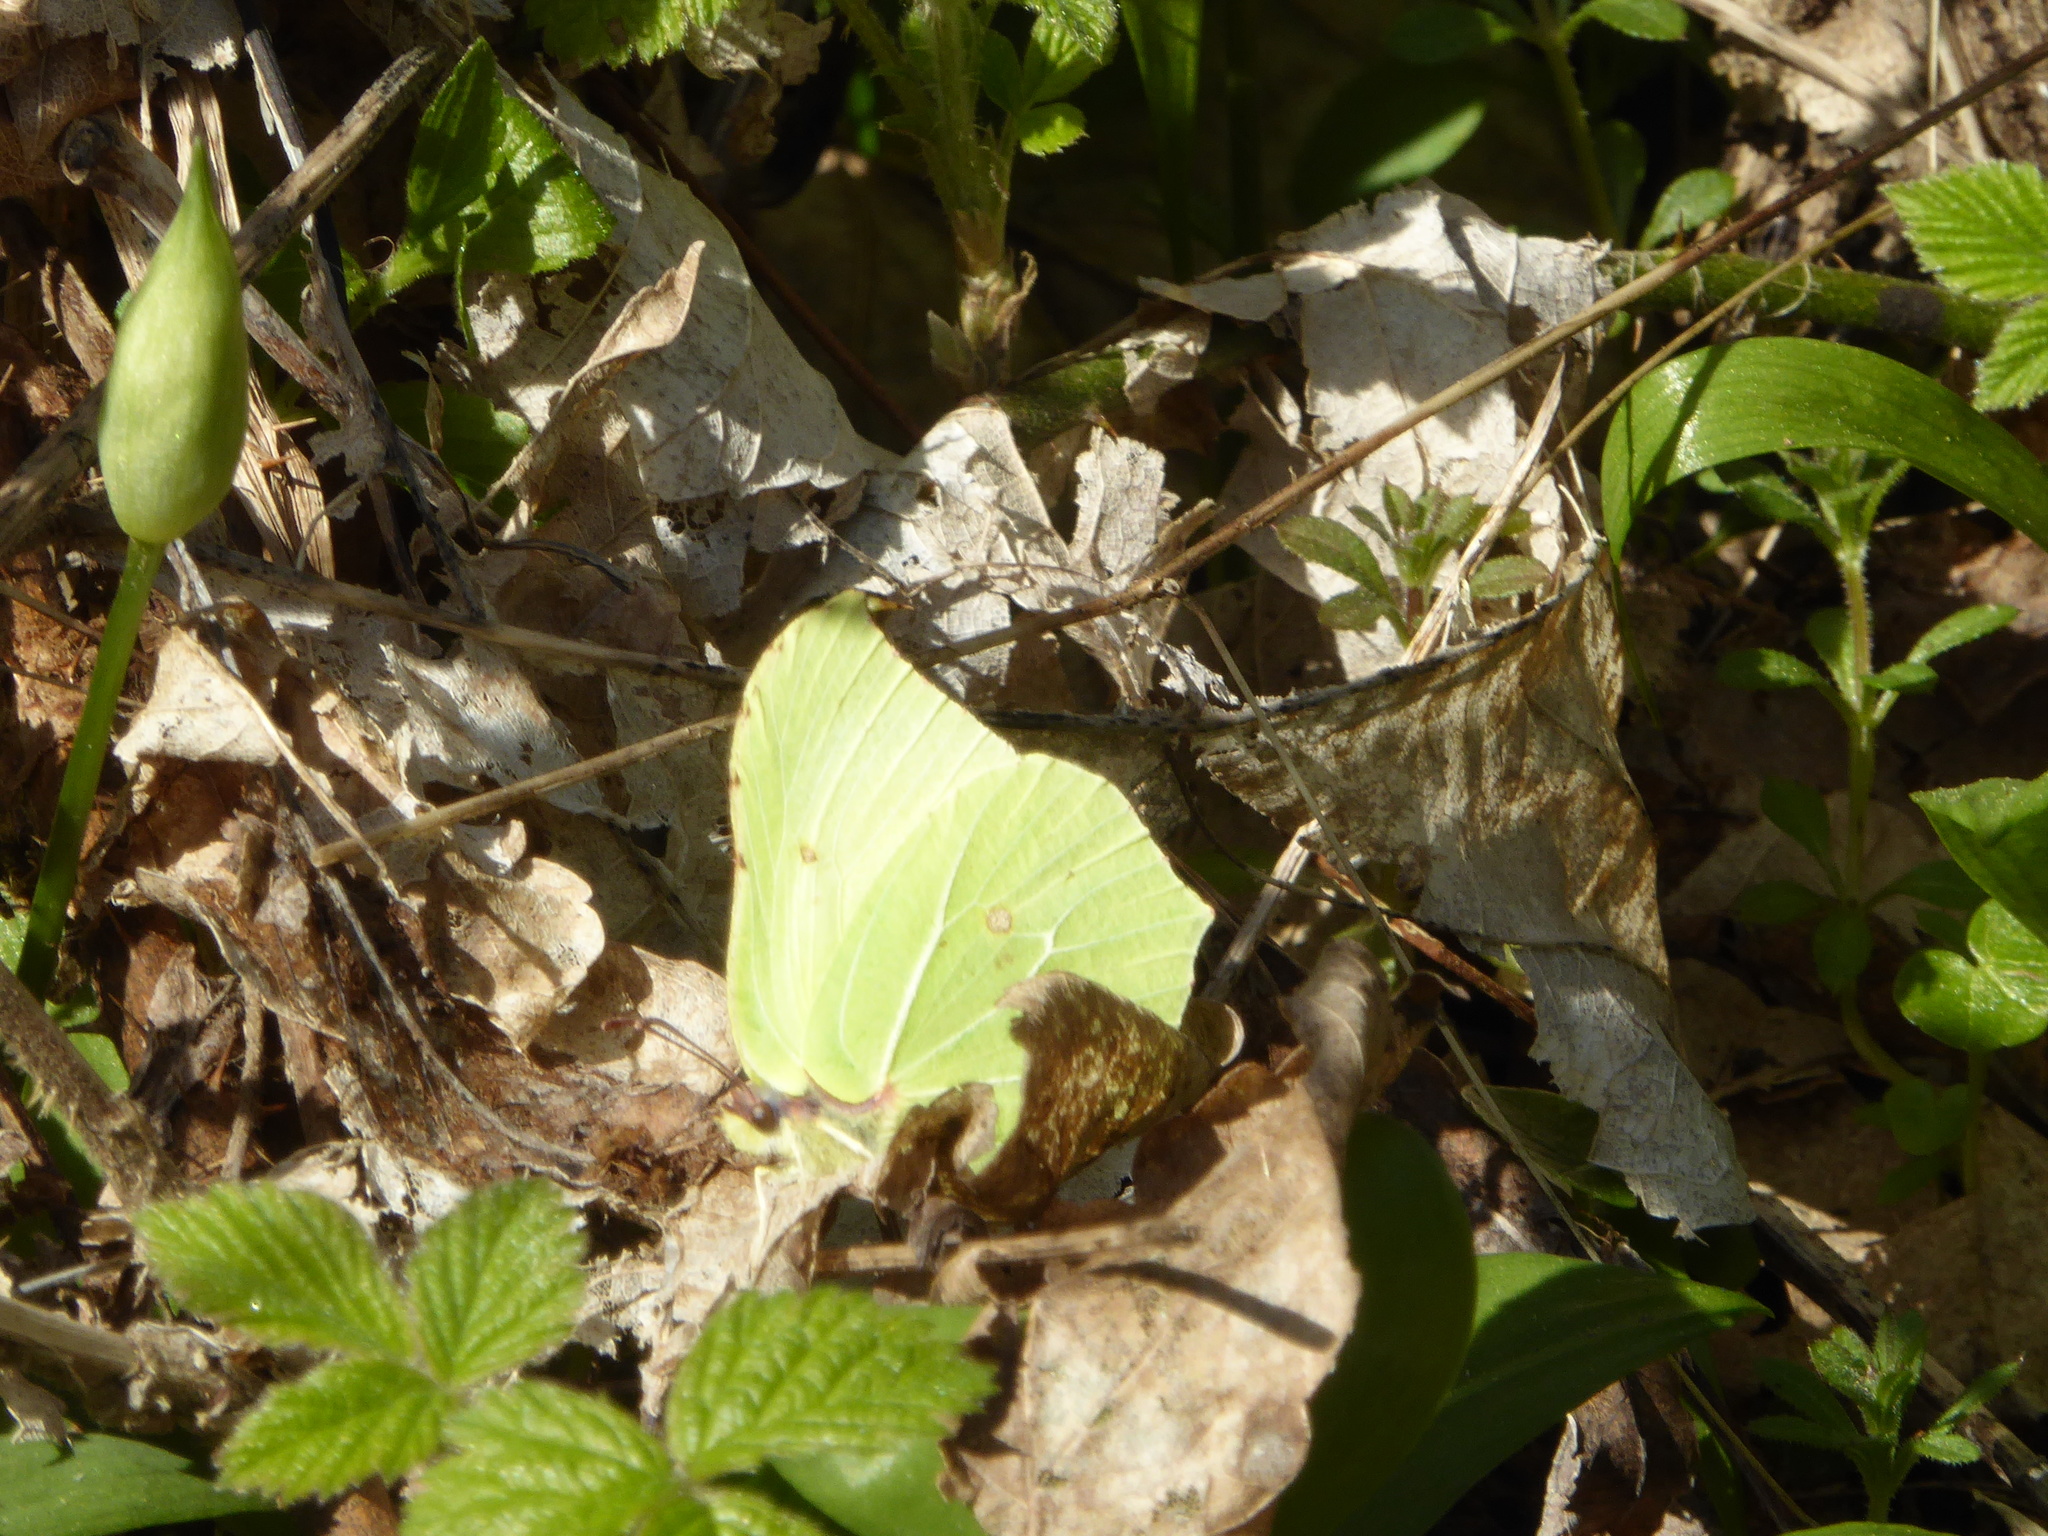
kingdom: Animalia
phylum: Arthropoda
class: Insecta
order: Lepidoptera
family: Pieridae
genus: Gonepteryx
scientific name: Gonepteryx rhamni
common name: Brimstone
